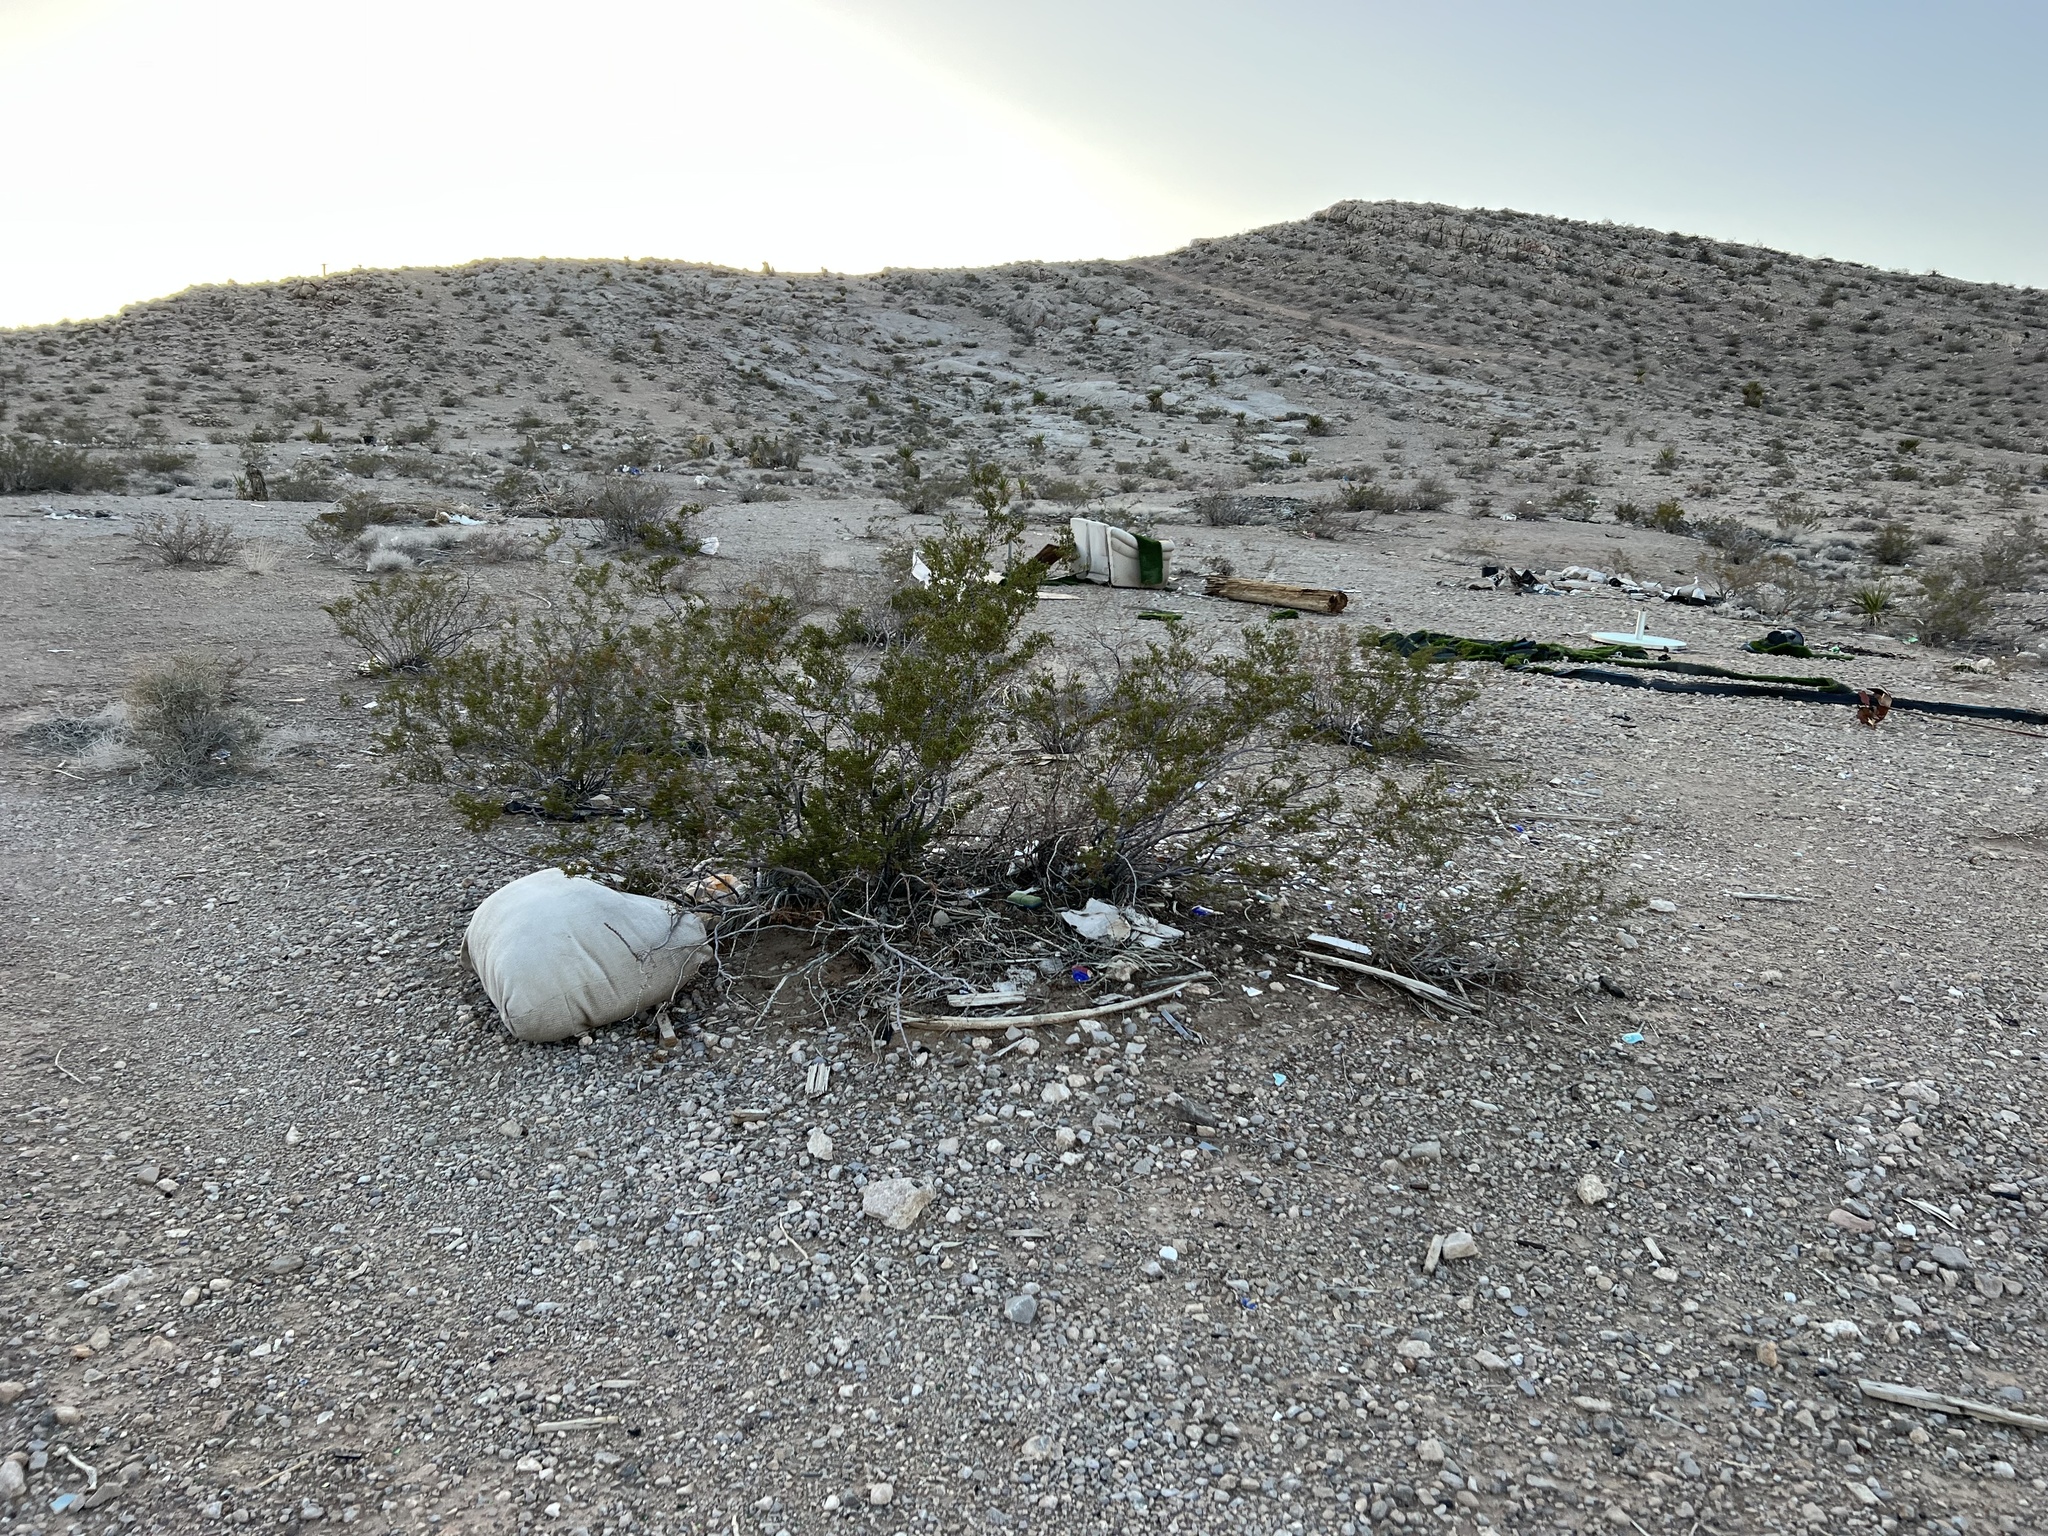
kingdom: Plantae
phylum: Tracheophyta
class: Magnoliopsida
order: Zygophyllales
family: Zygophyllaceae
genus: Larrea
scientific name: Larrea tridentata
